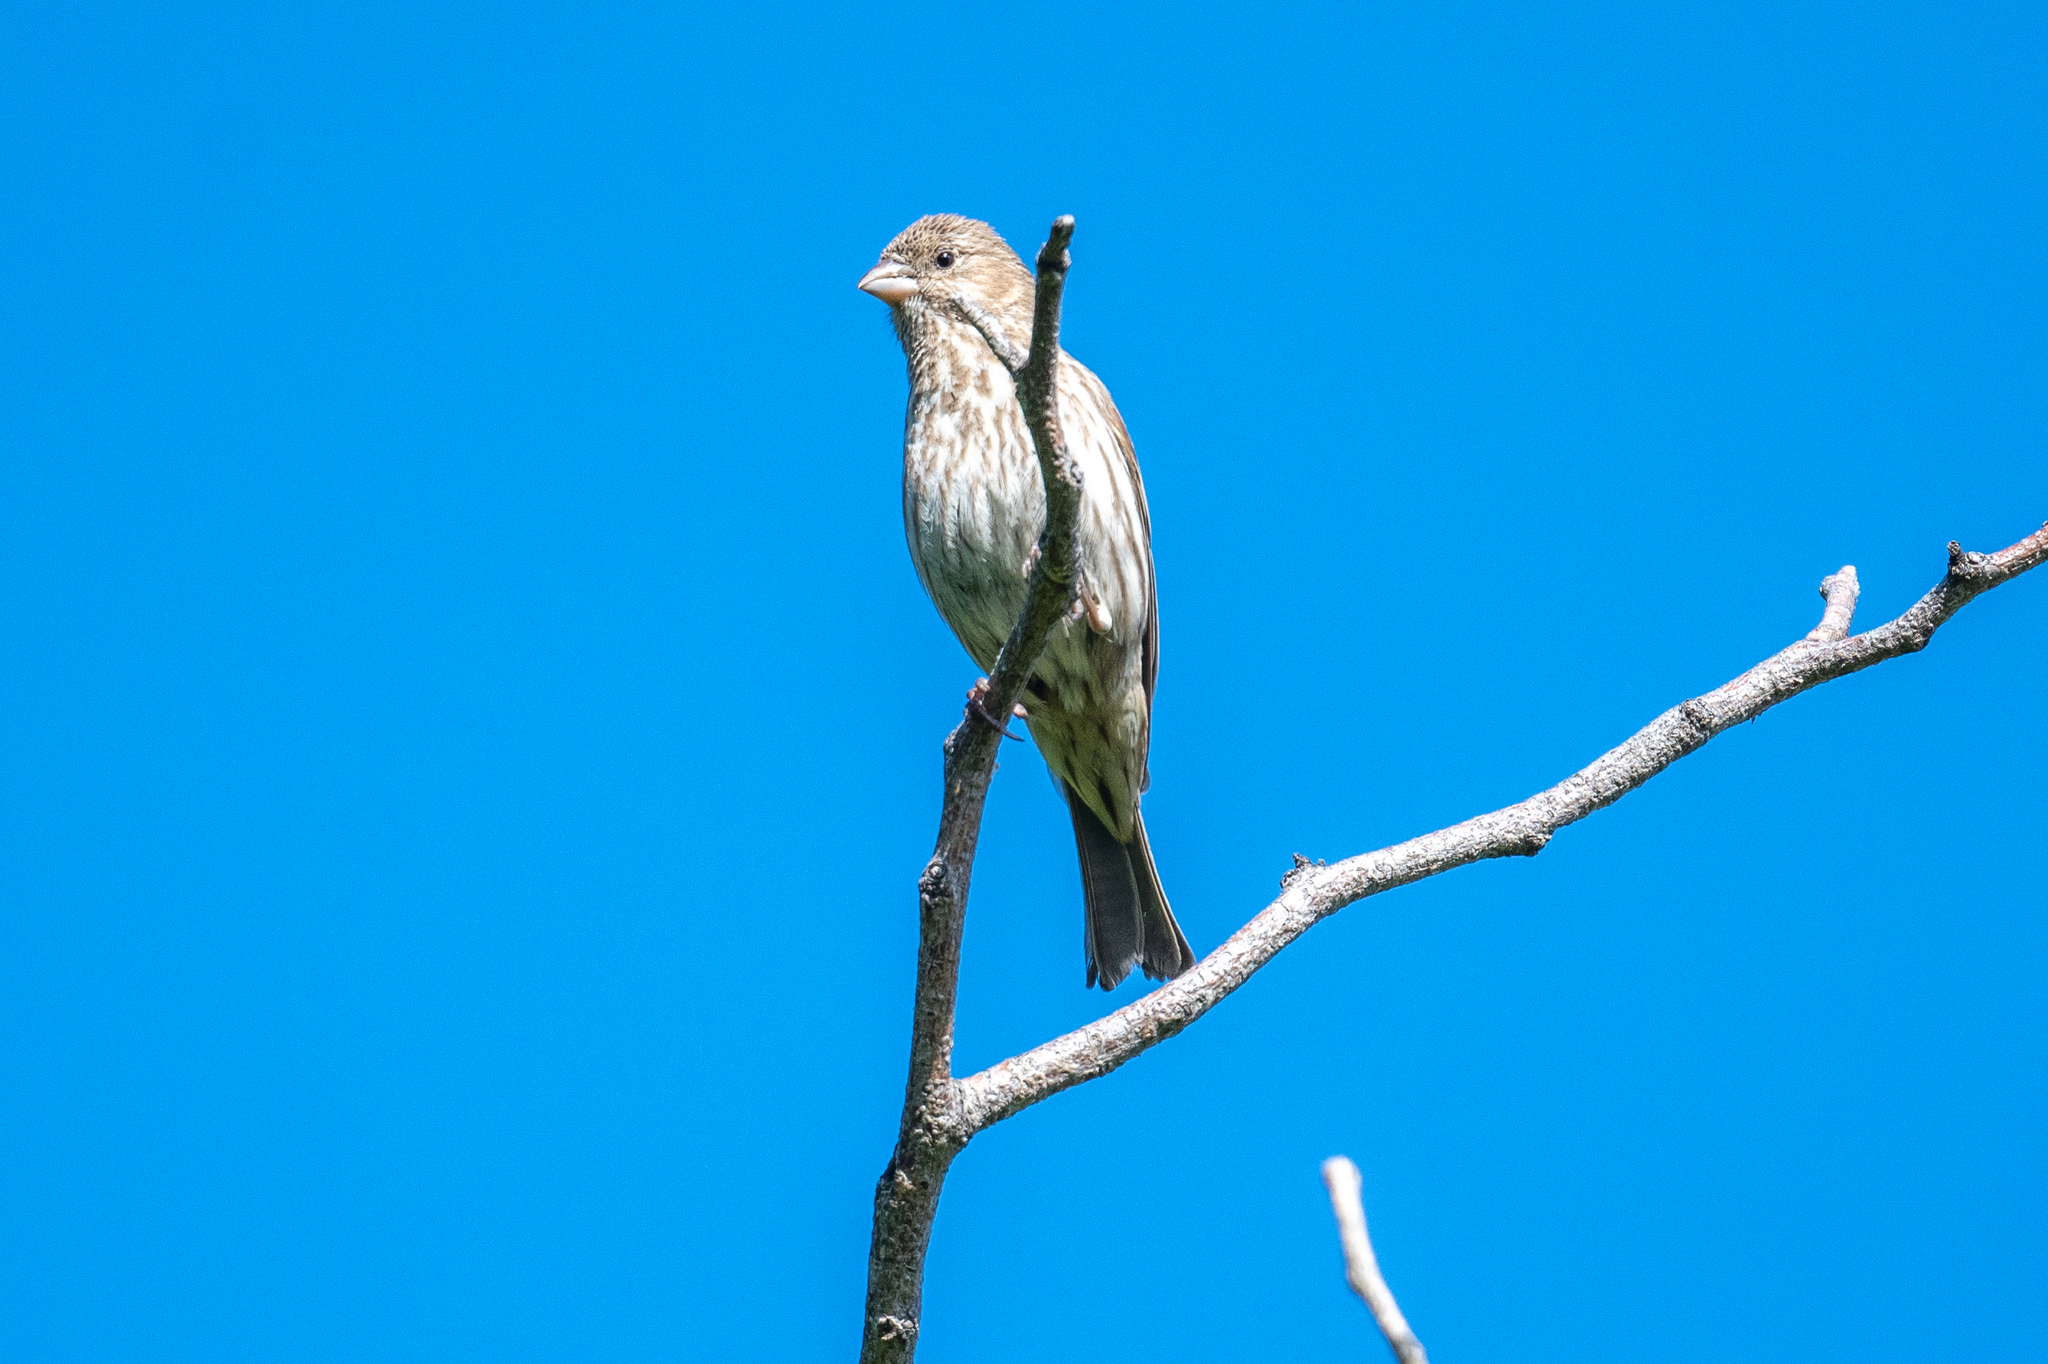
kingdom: Animalia
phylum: Chordata
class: Aves
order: Passeriformes
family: Fringillidae
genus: Haemorhous
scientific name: Haemorhous mexicanus
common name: House finch
